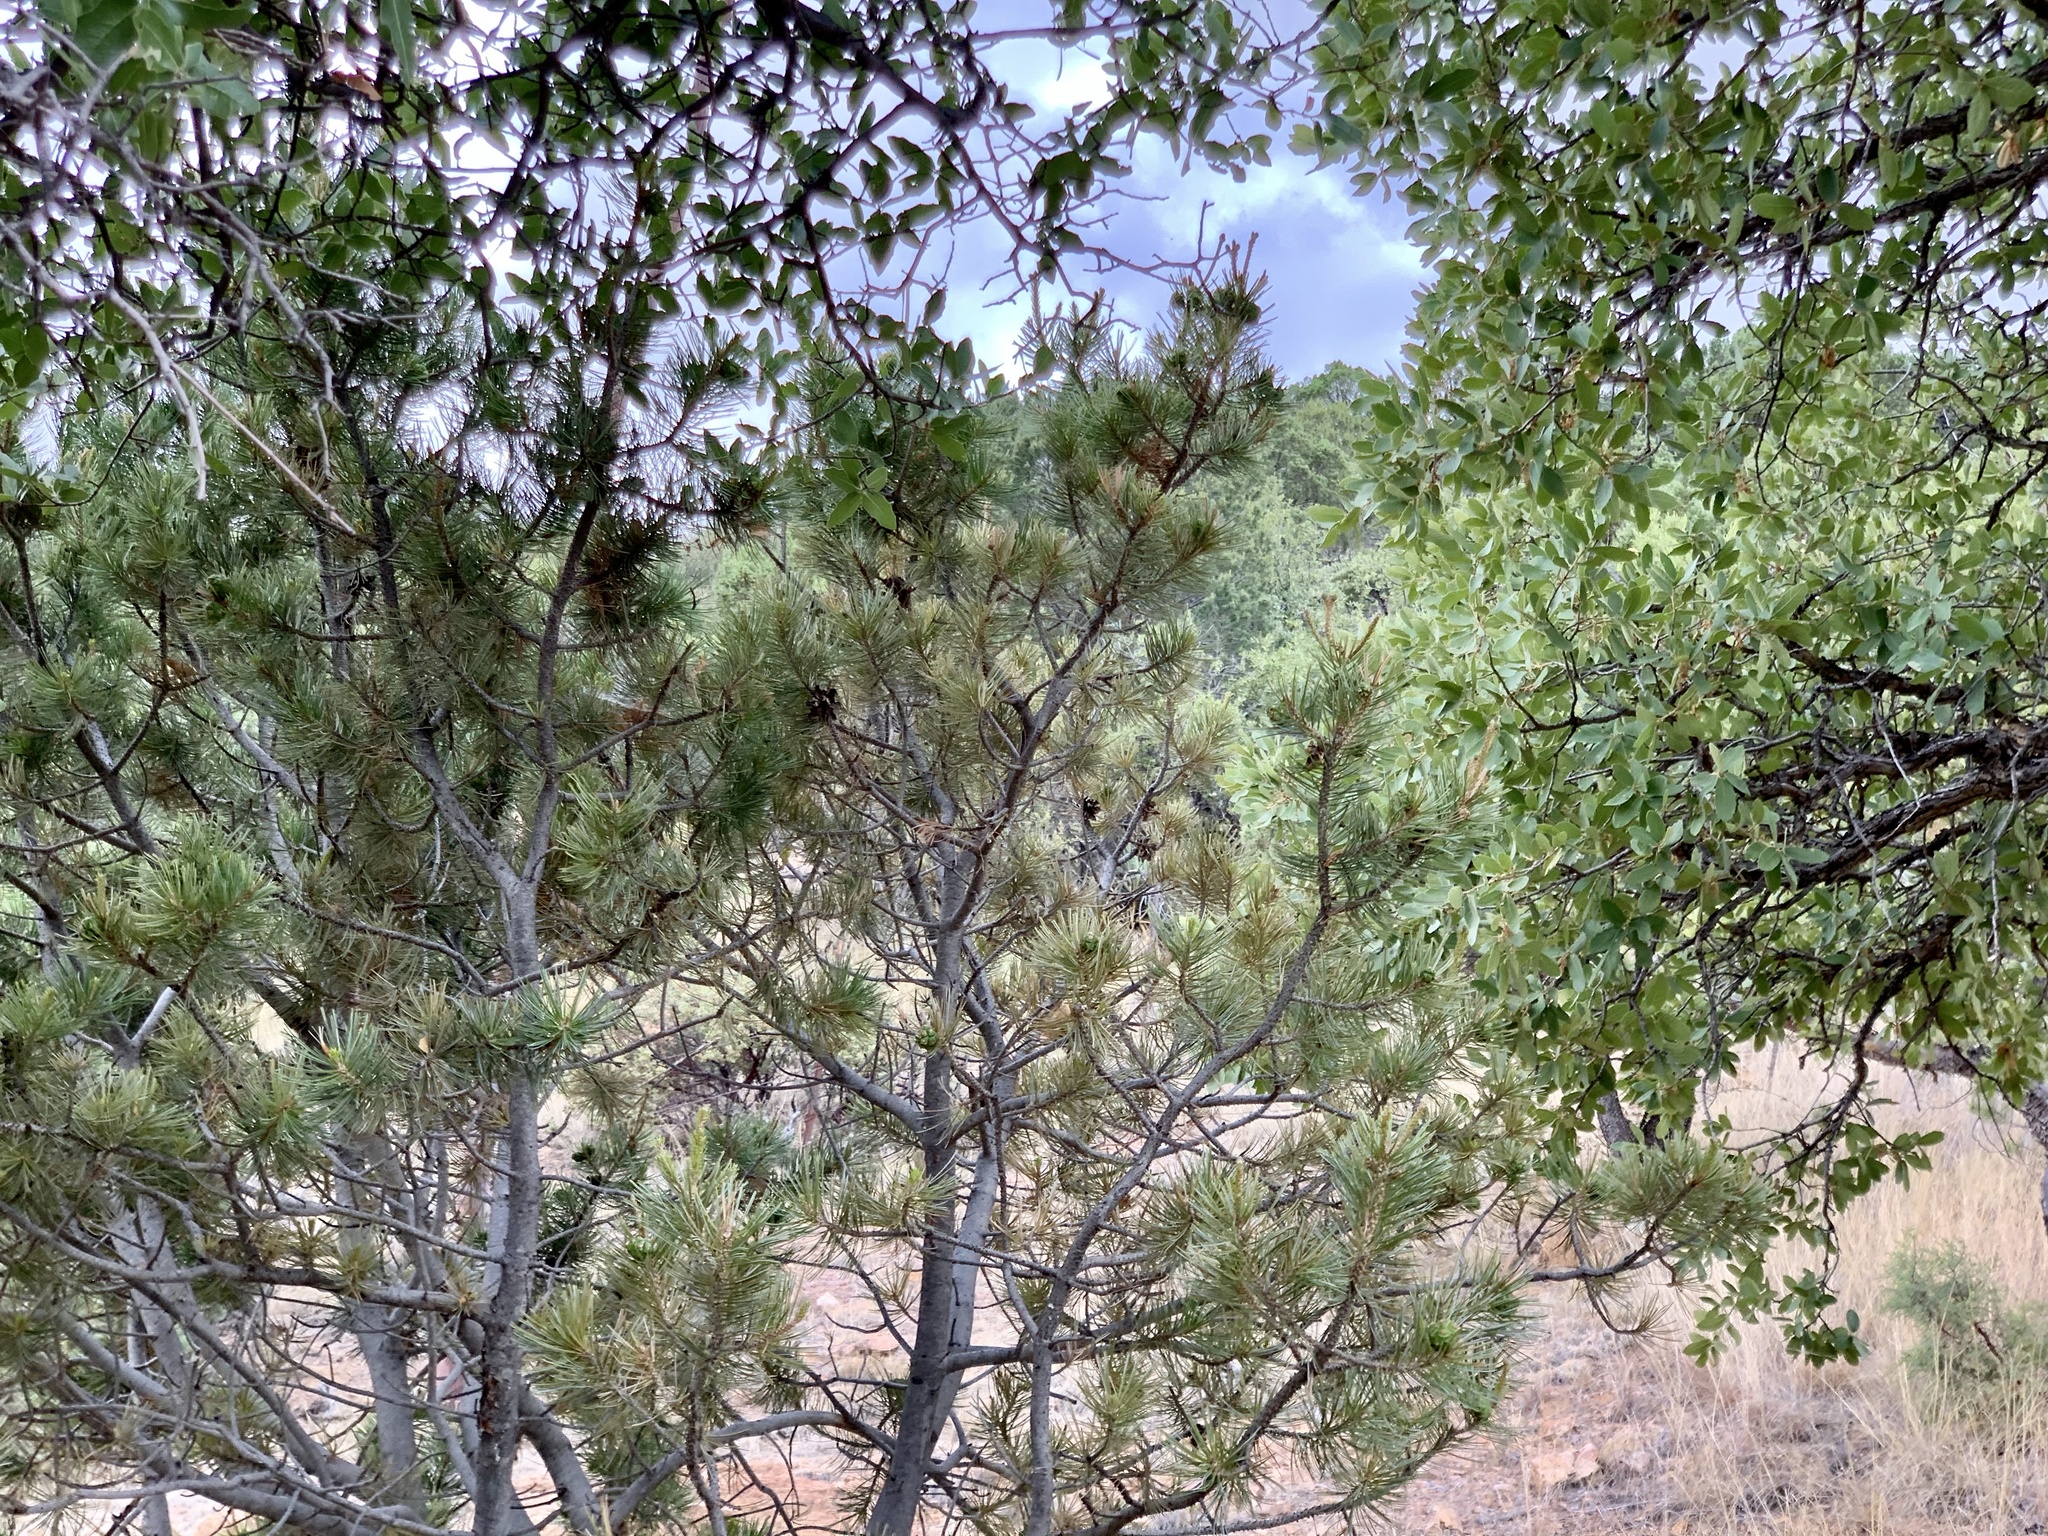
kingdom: Plantae
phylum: Tracheophyta
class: Pinopsida
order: Pinales
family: Pinaceae
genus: Pinus
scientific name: Pinus cembroides
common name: Mexican nut pine
